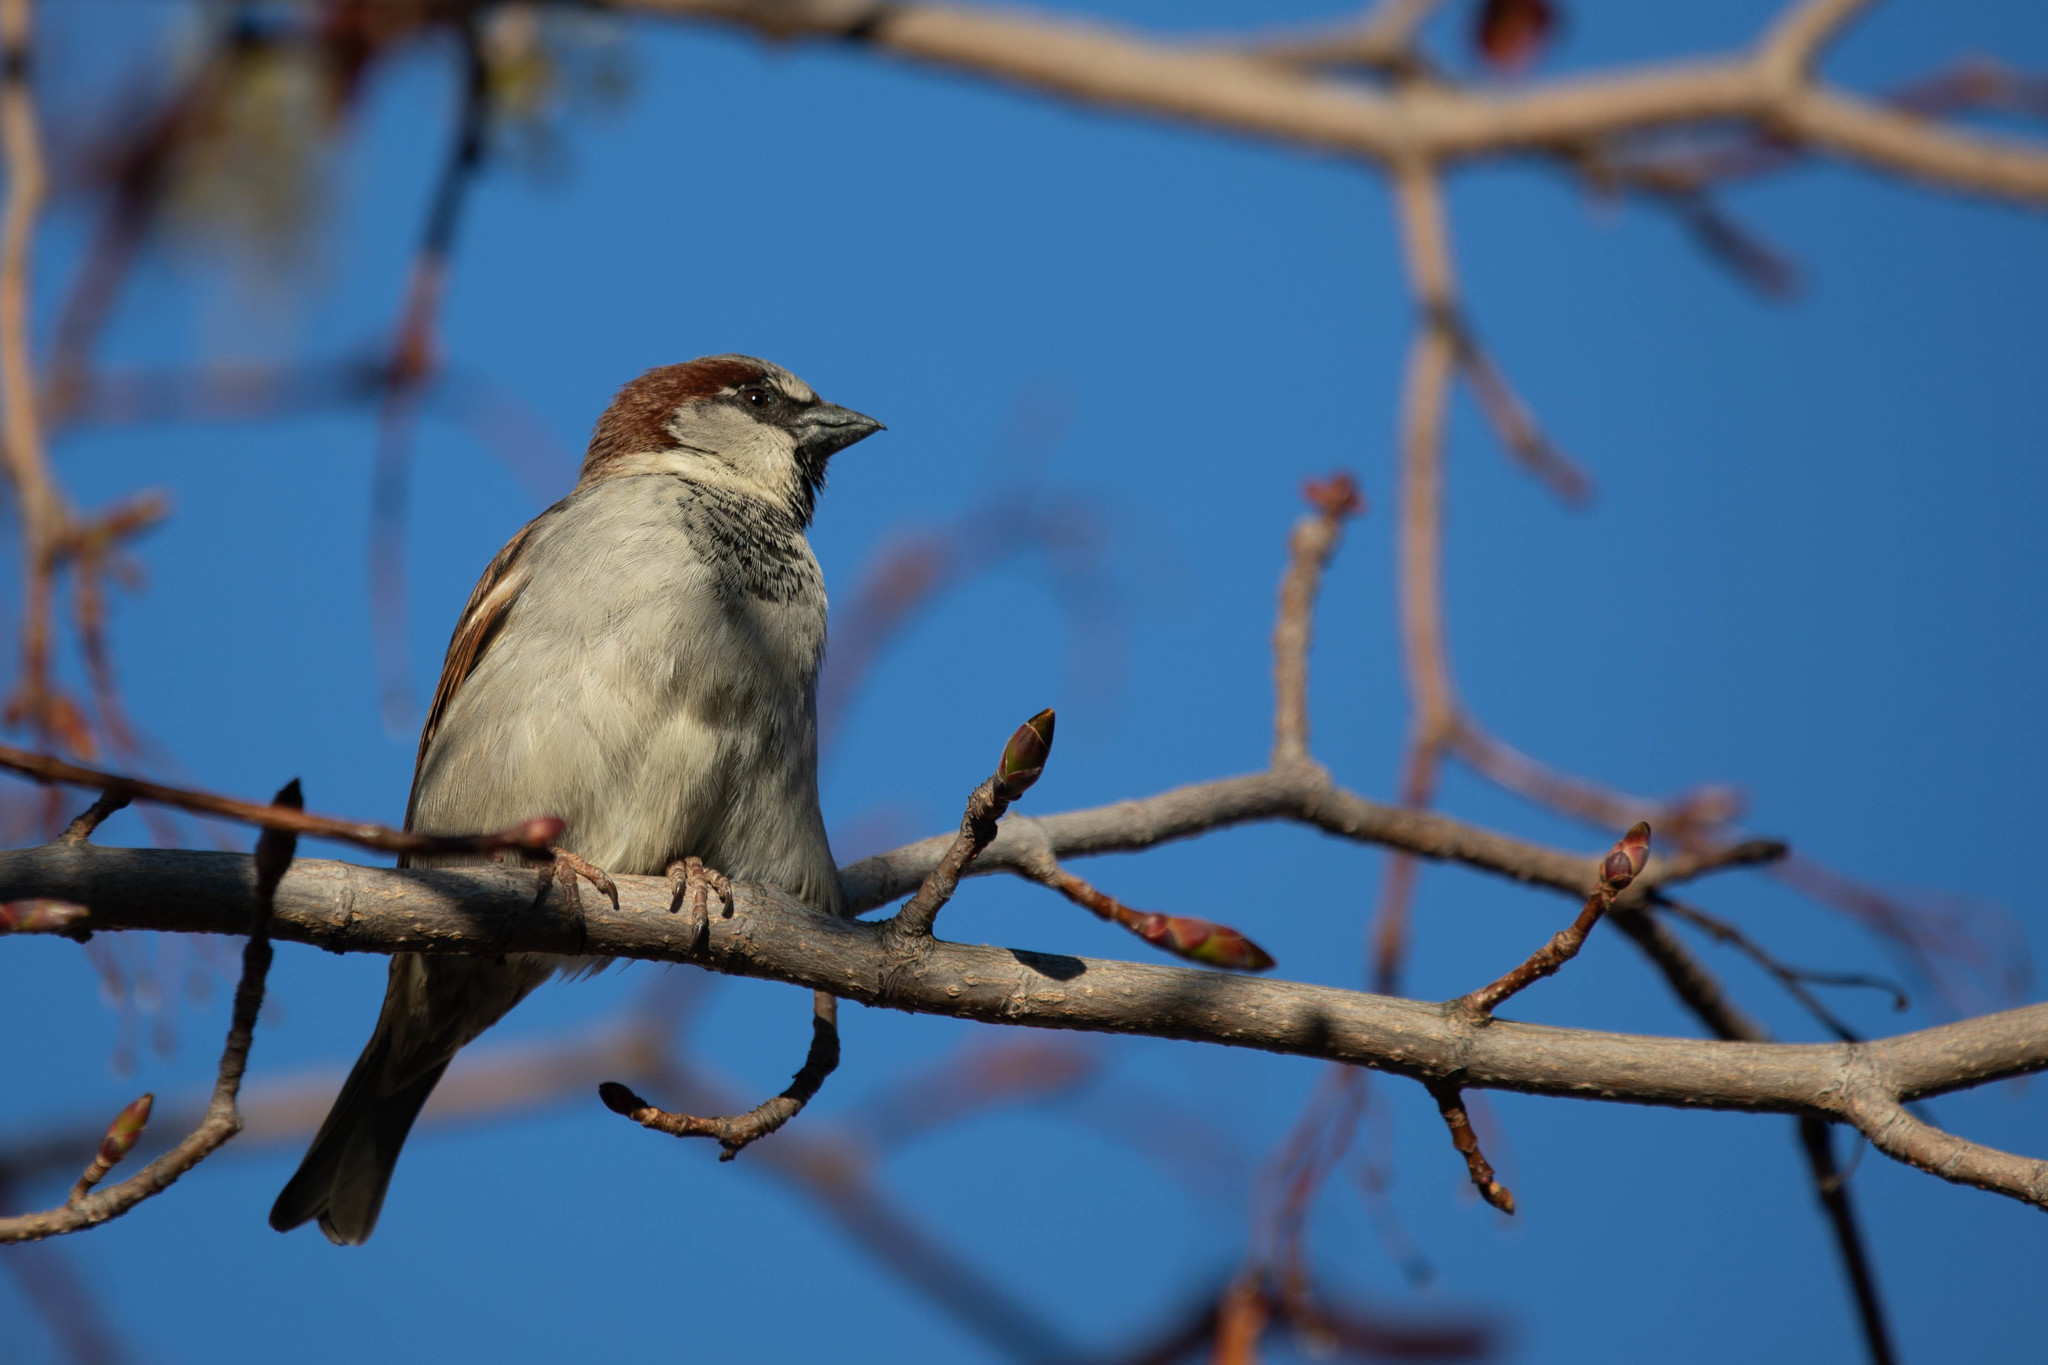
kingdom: Animalia
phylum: Chordata
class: Aves
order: Passeriformes
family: Passeridae
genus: Passer
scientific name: Passer domesticus
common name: House sparrow
